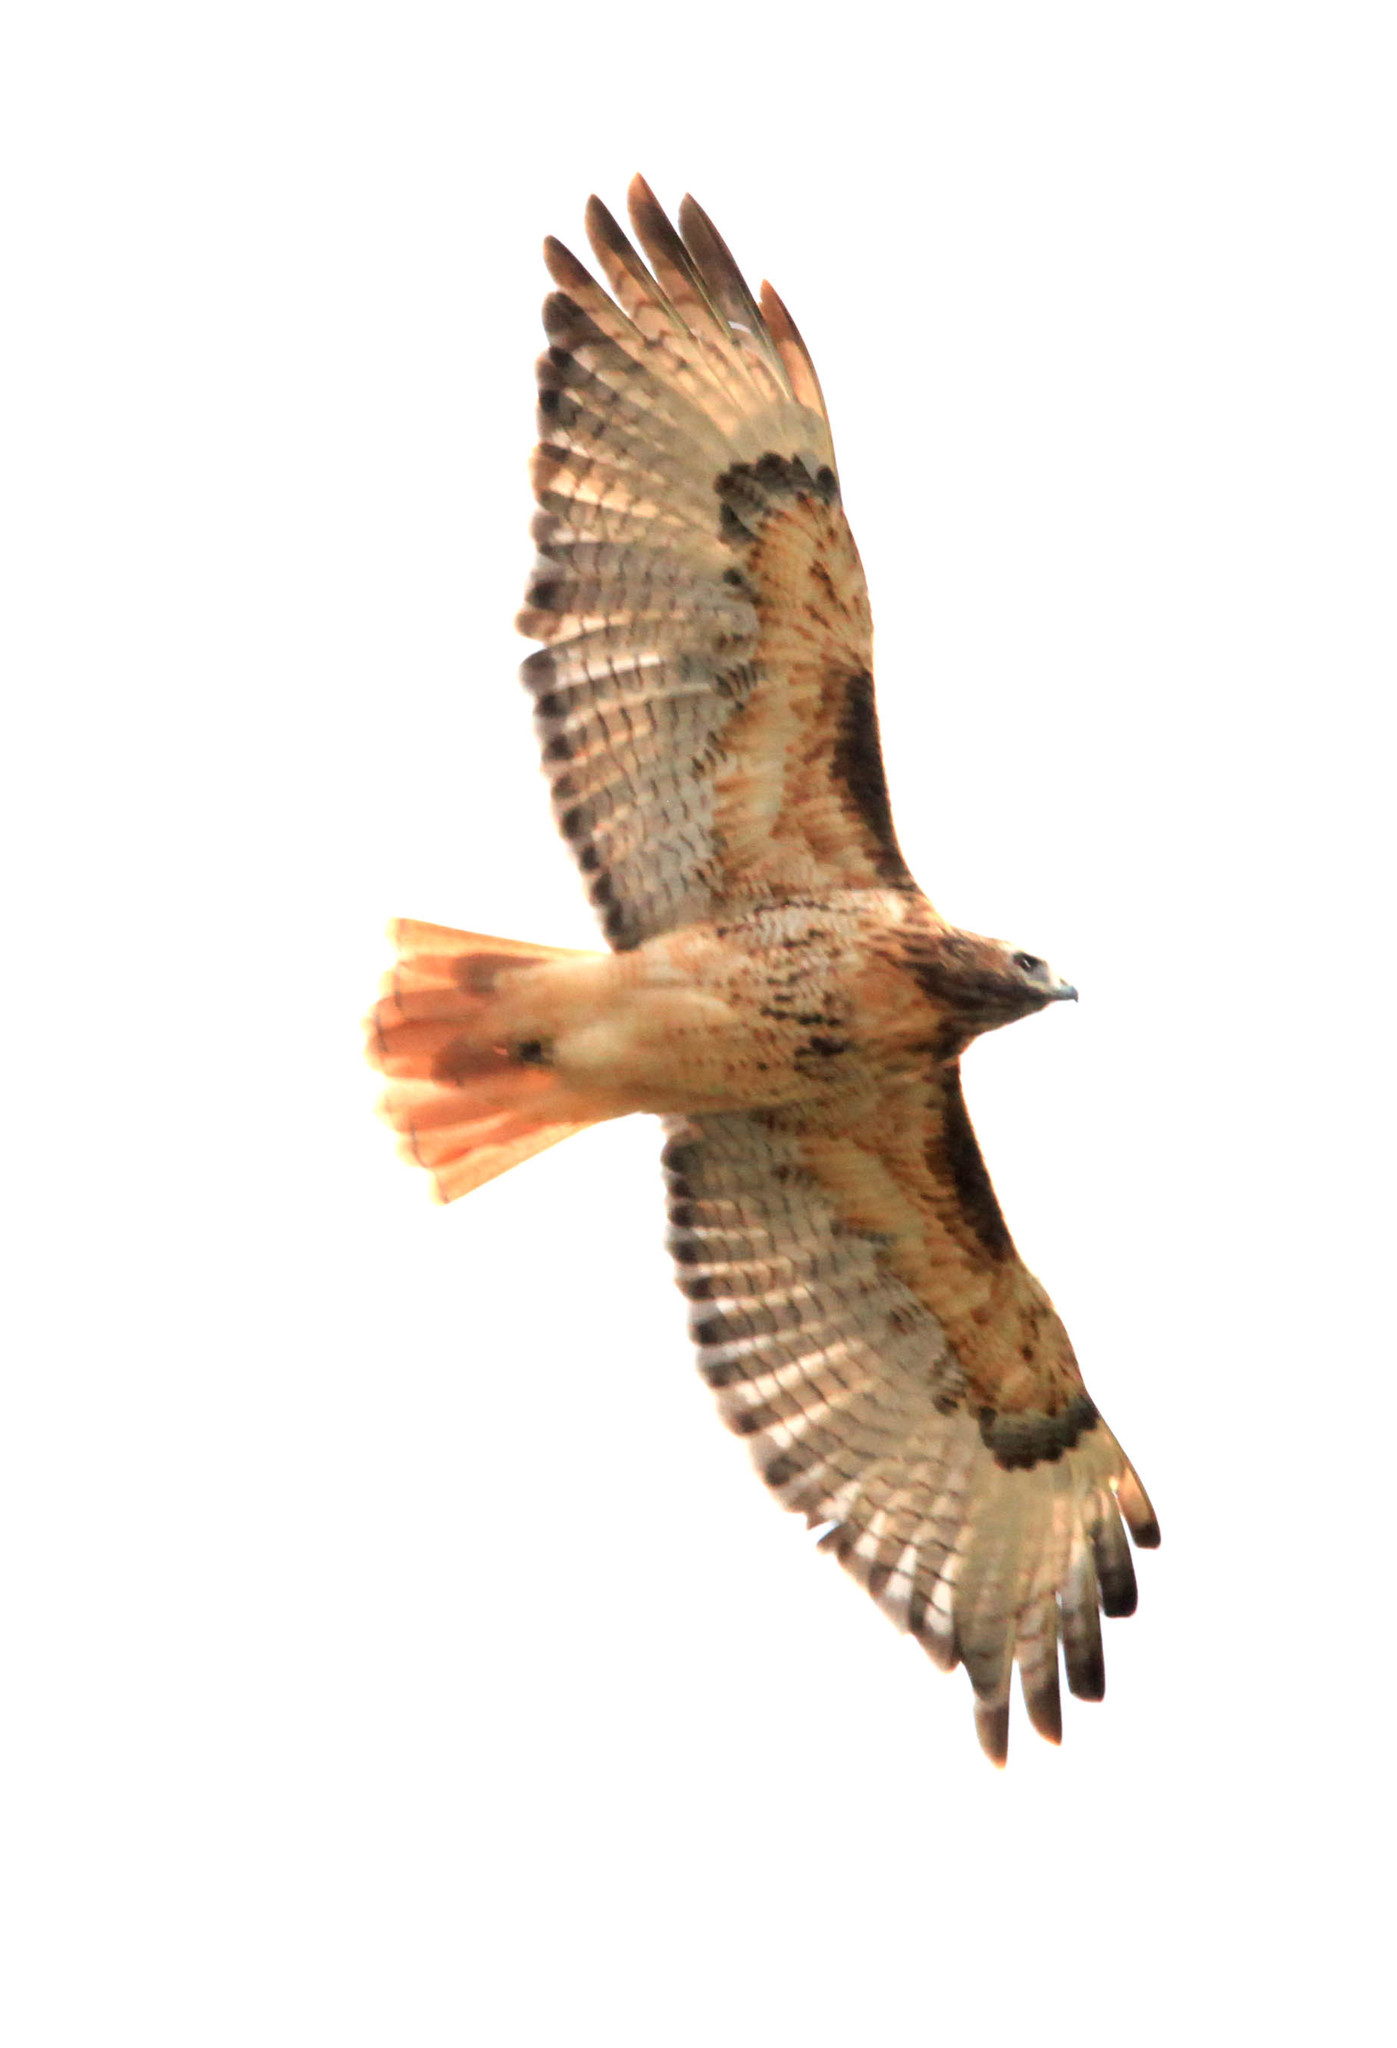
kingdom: Animalia
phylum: Chordata
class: Aves
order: Accipitriformes
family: Accipitridae
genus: Buteo
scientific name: Buteo jamaicensis
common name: Red-tailed hawk
